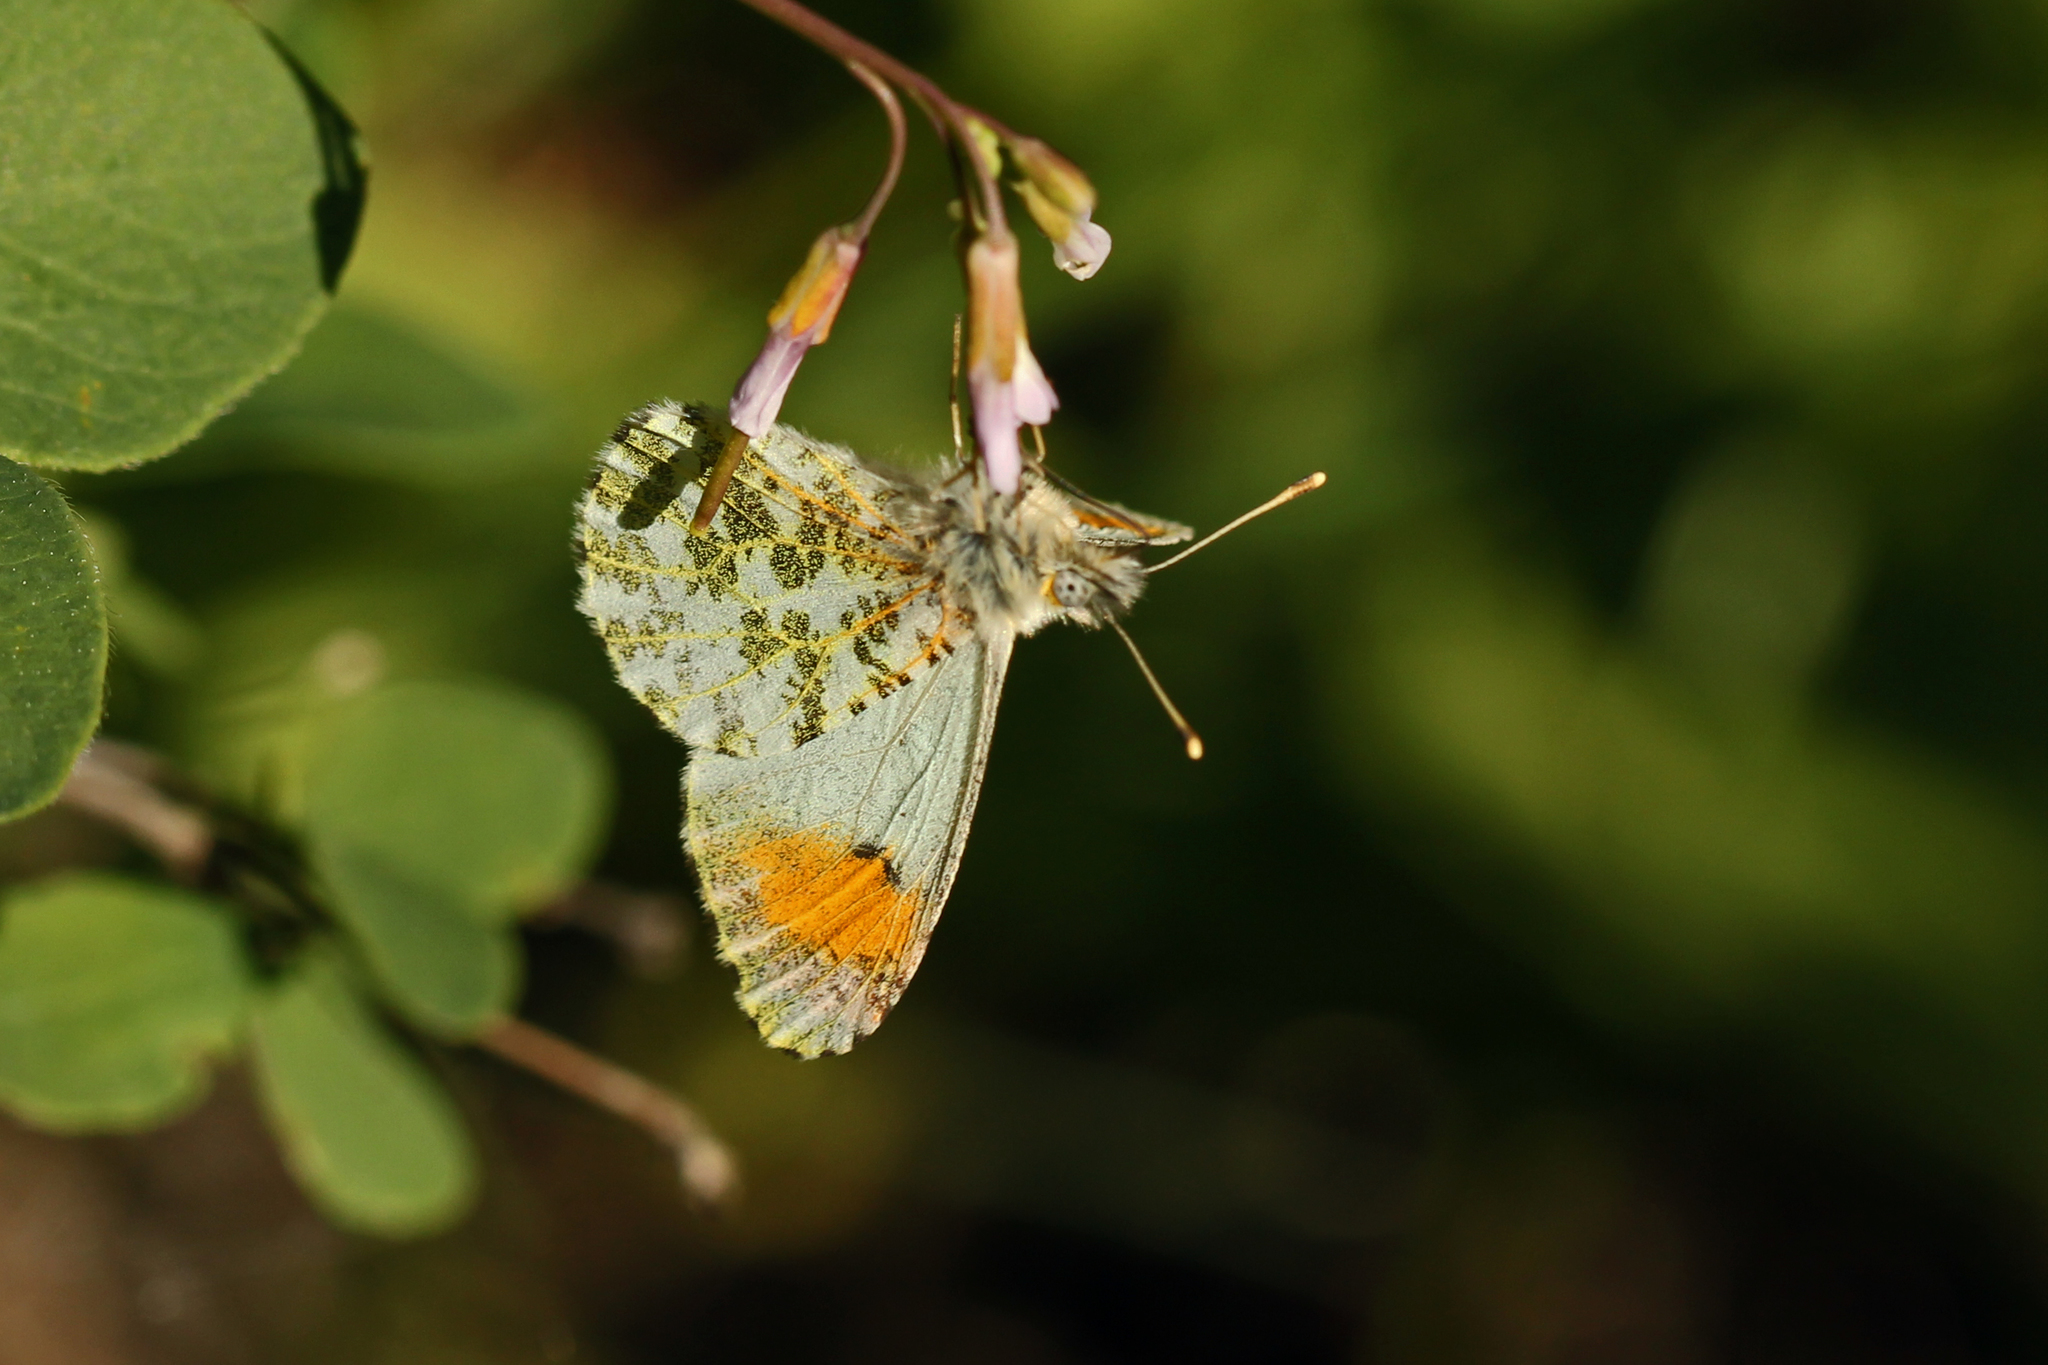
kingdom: Animalia
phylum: Arthropoda
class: Insecta
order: Lepidoptera
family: Pieridae
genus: Anthocharis
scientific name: Anthocharis julia
